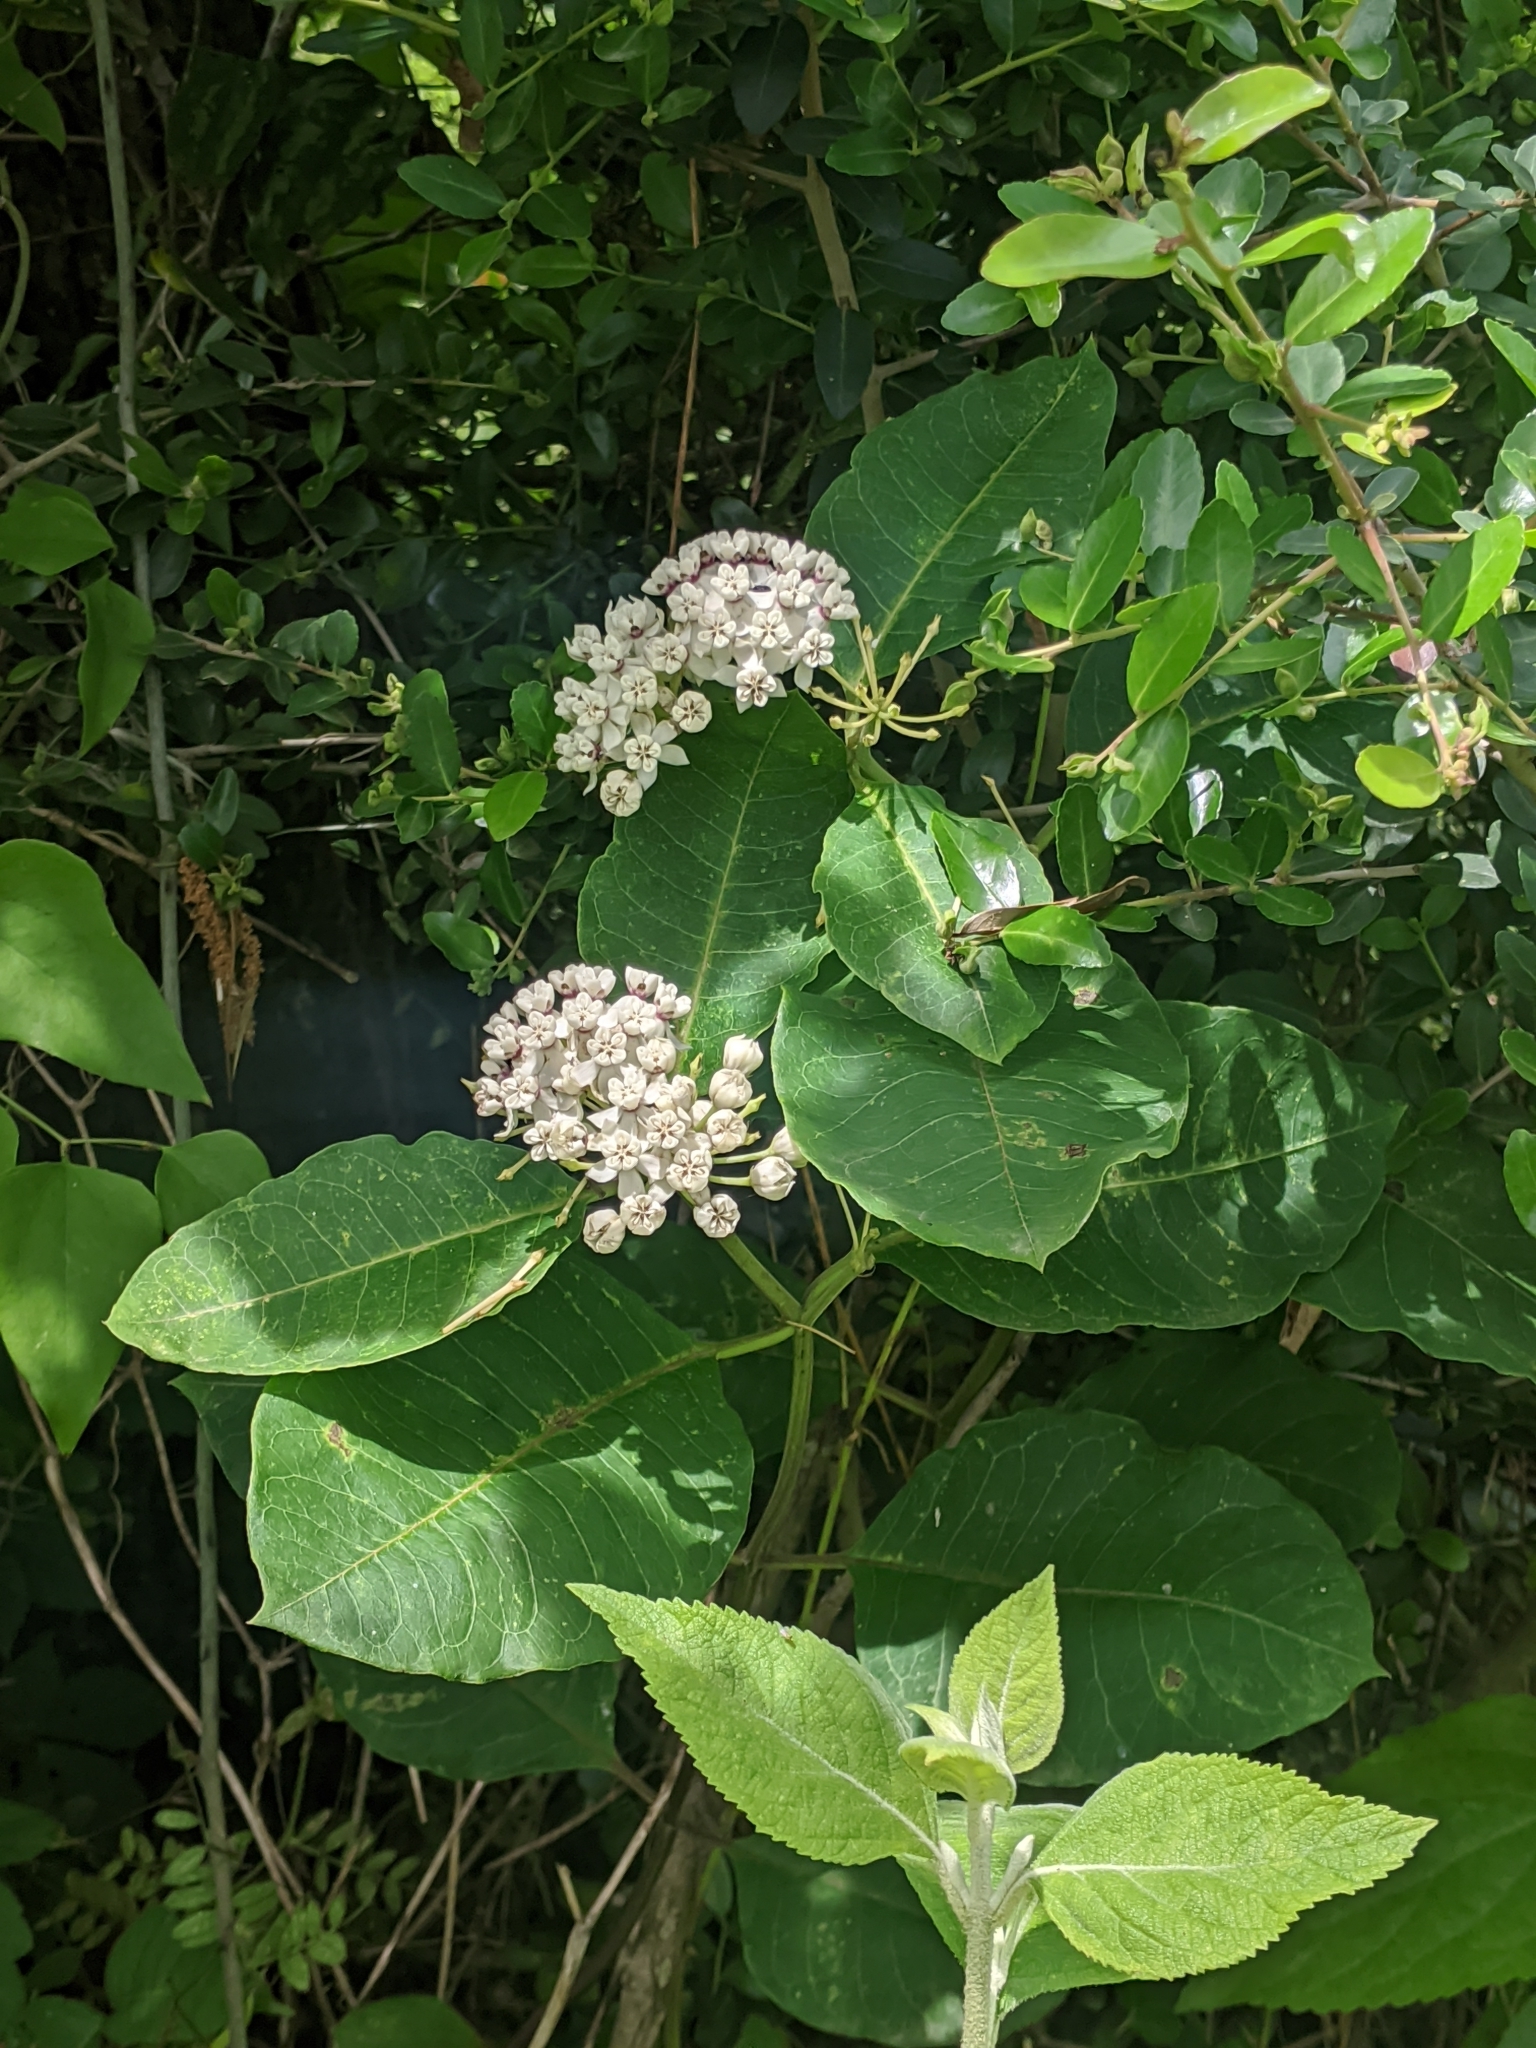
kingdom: Plantae
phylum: Tracheophyta
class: Magnoliopsida
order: Gentianales
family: Apocynaceae
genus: Asclepias
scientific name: Asclepias variegata
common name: Variegated milkweed
